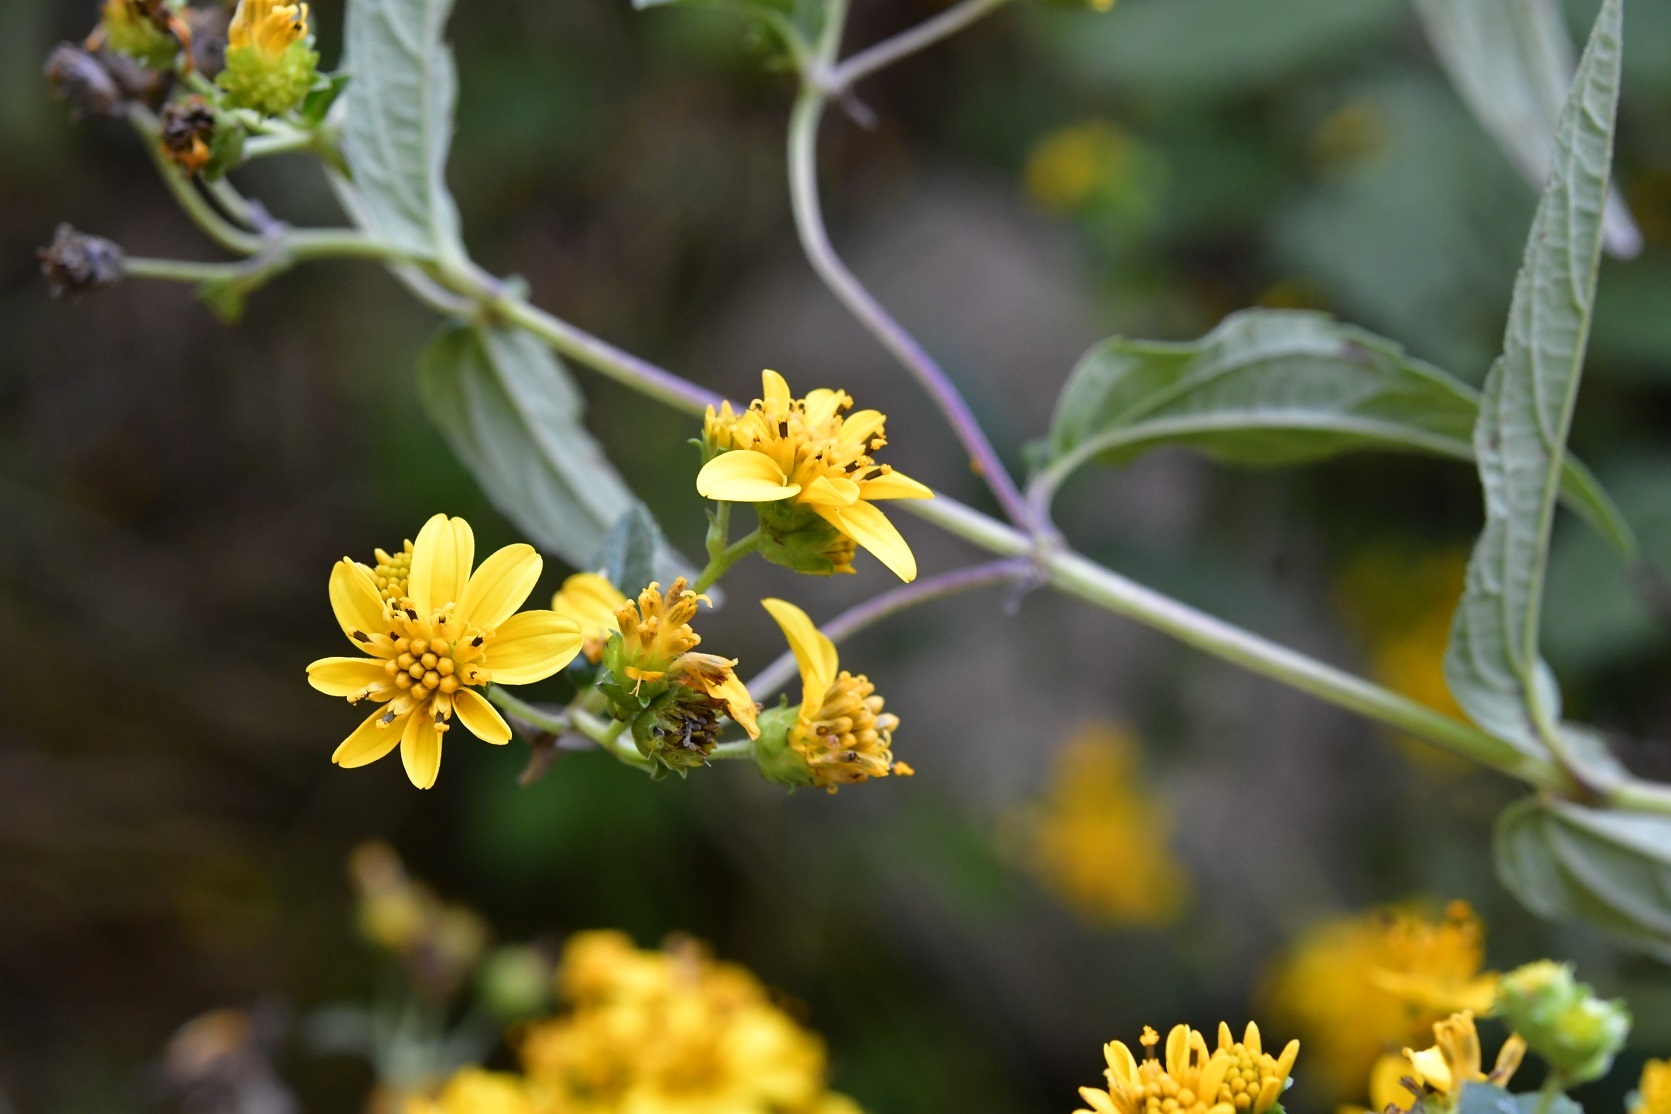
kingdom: Plantae
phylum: Tracheophyta
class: Magnoliopsida
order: Asterales
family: Asteraceae
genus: Perymenium
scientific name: Perymenium ghiesbreghtii
